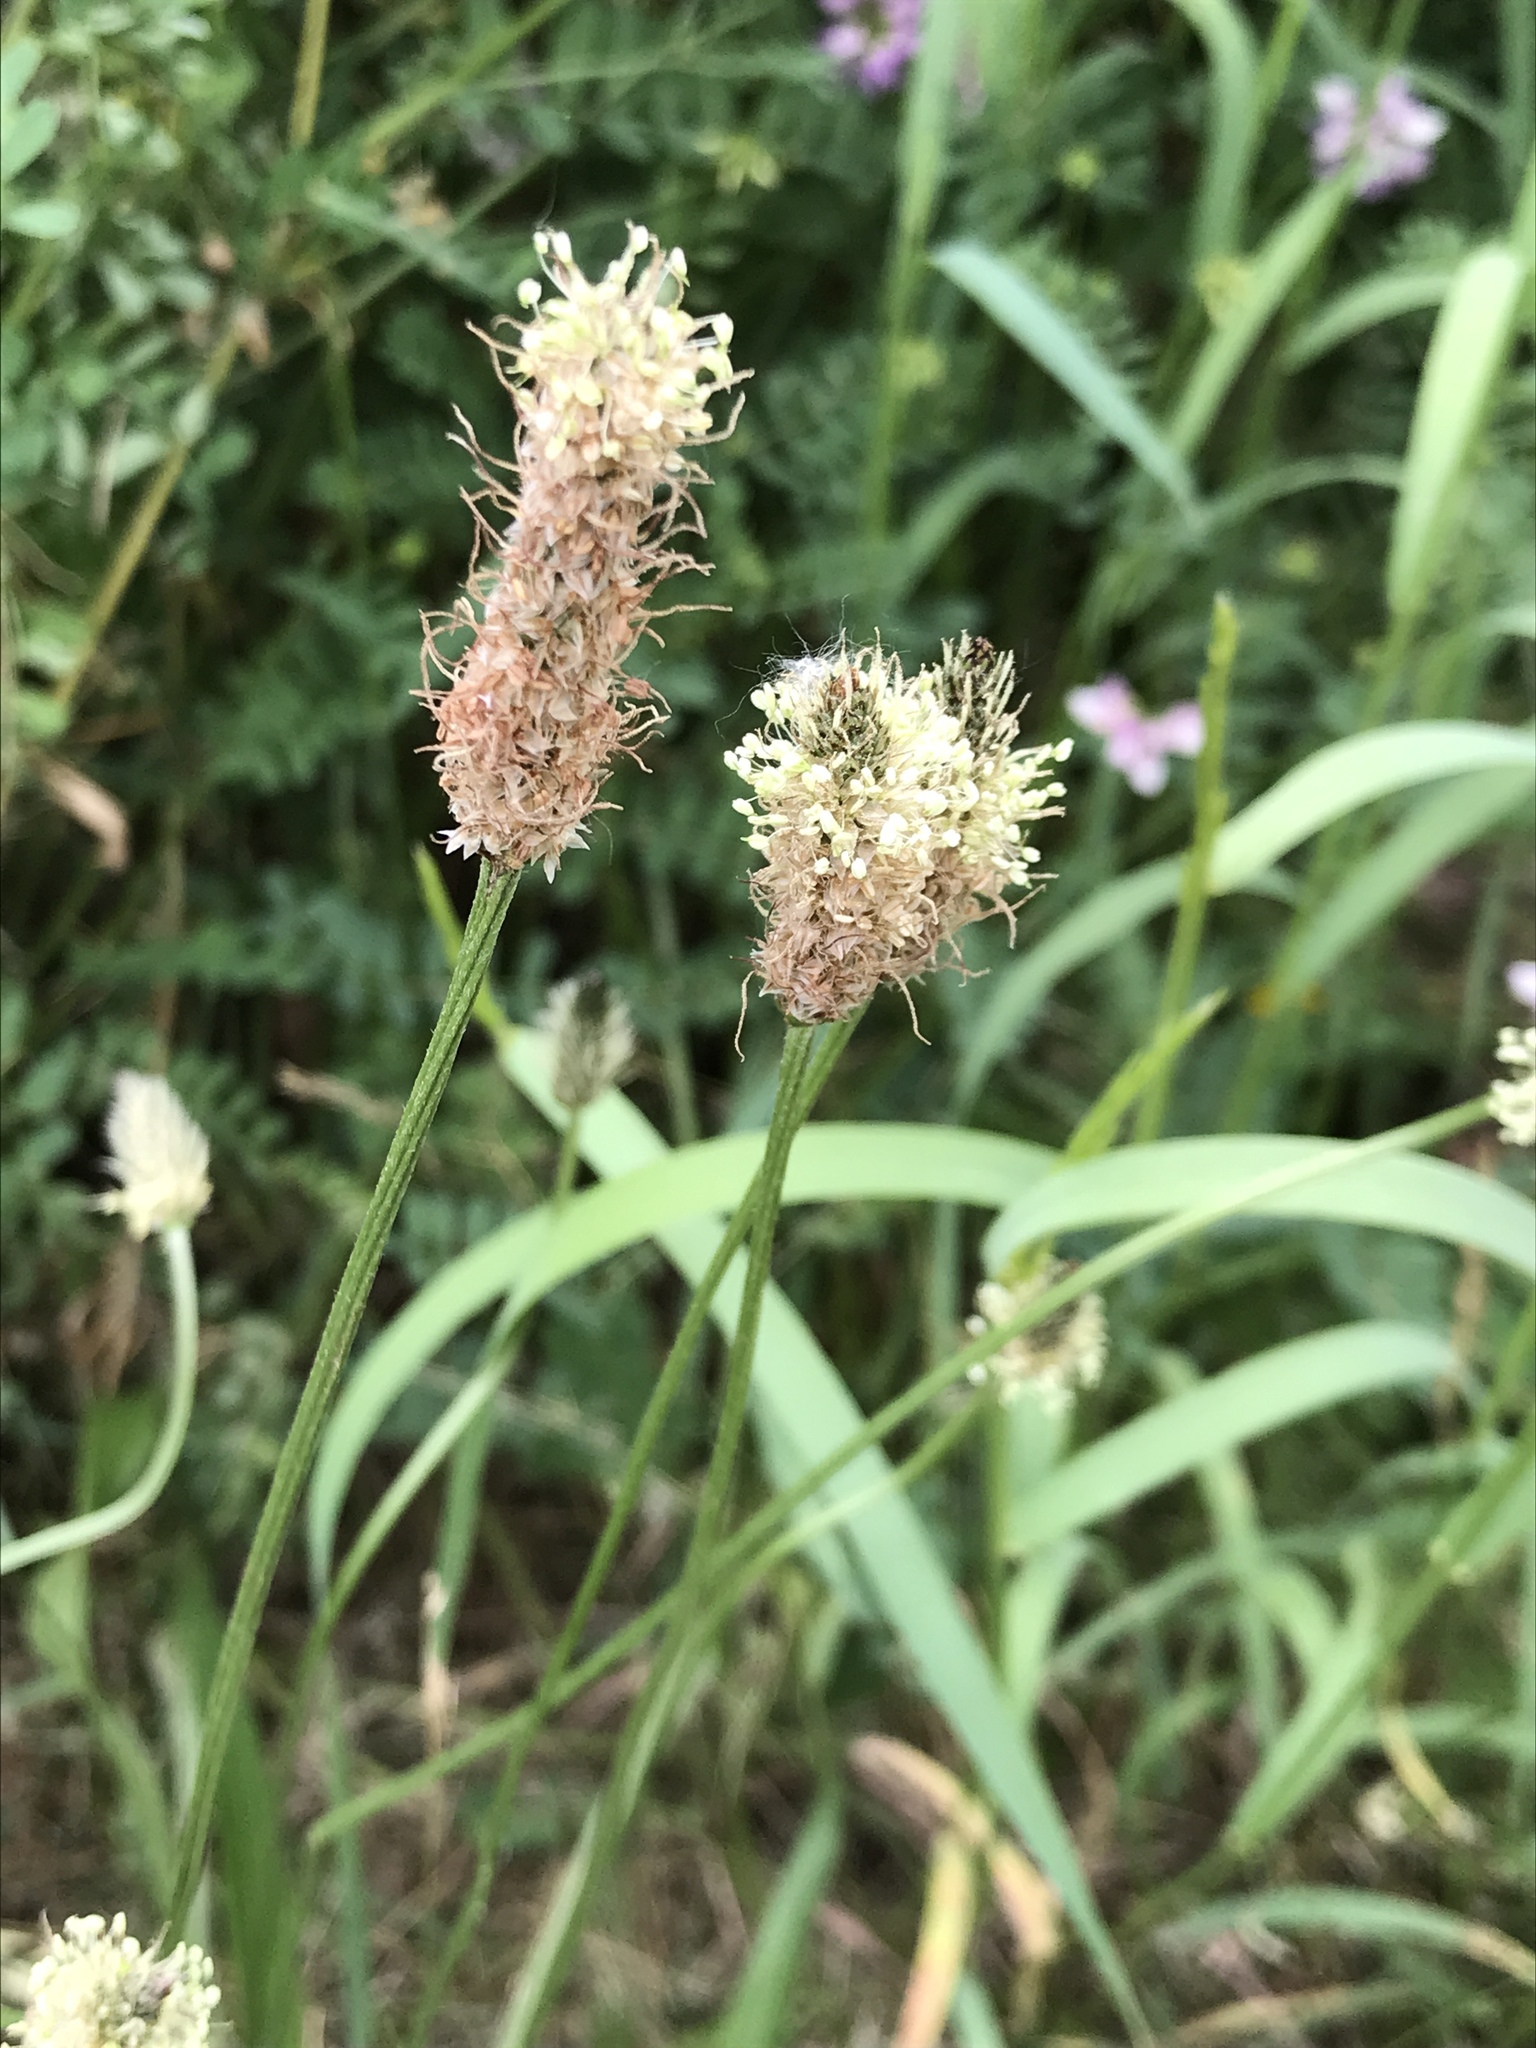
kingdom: Plantae
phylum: Tracheophyta
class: Magnoliopsida
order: Lamiales
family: Plantaginaceae
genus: Plantago
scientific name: Plantago lanceolata
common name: Ribwort plantain
